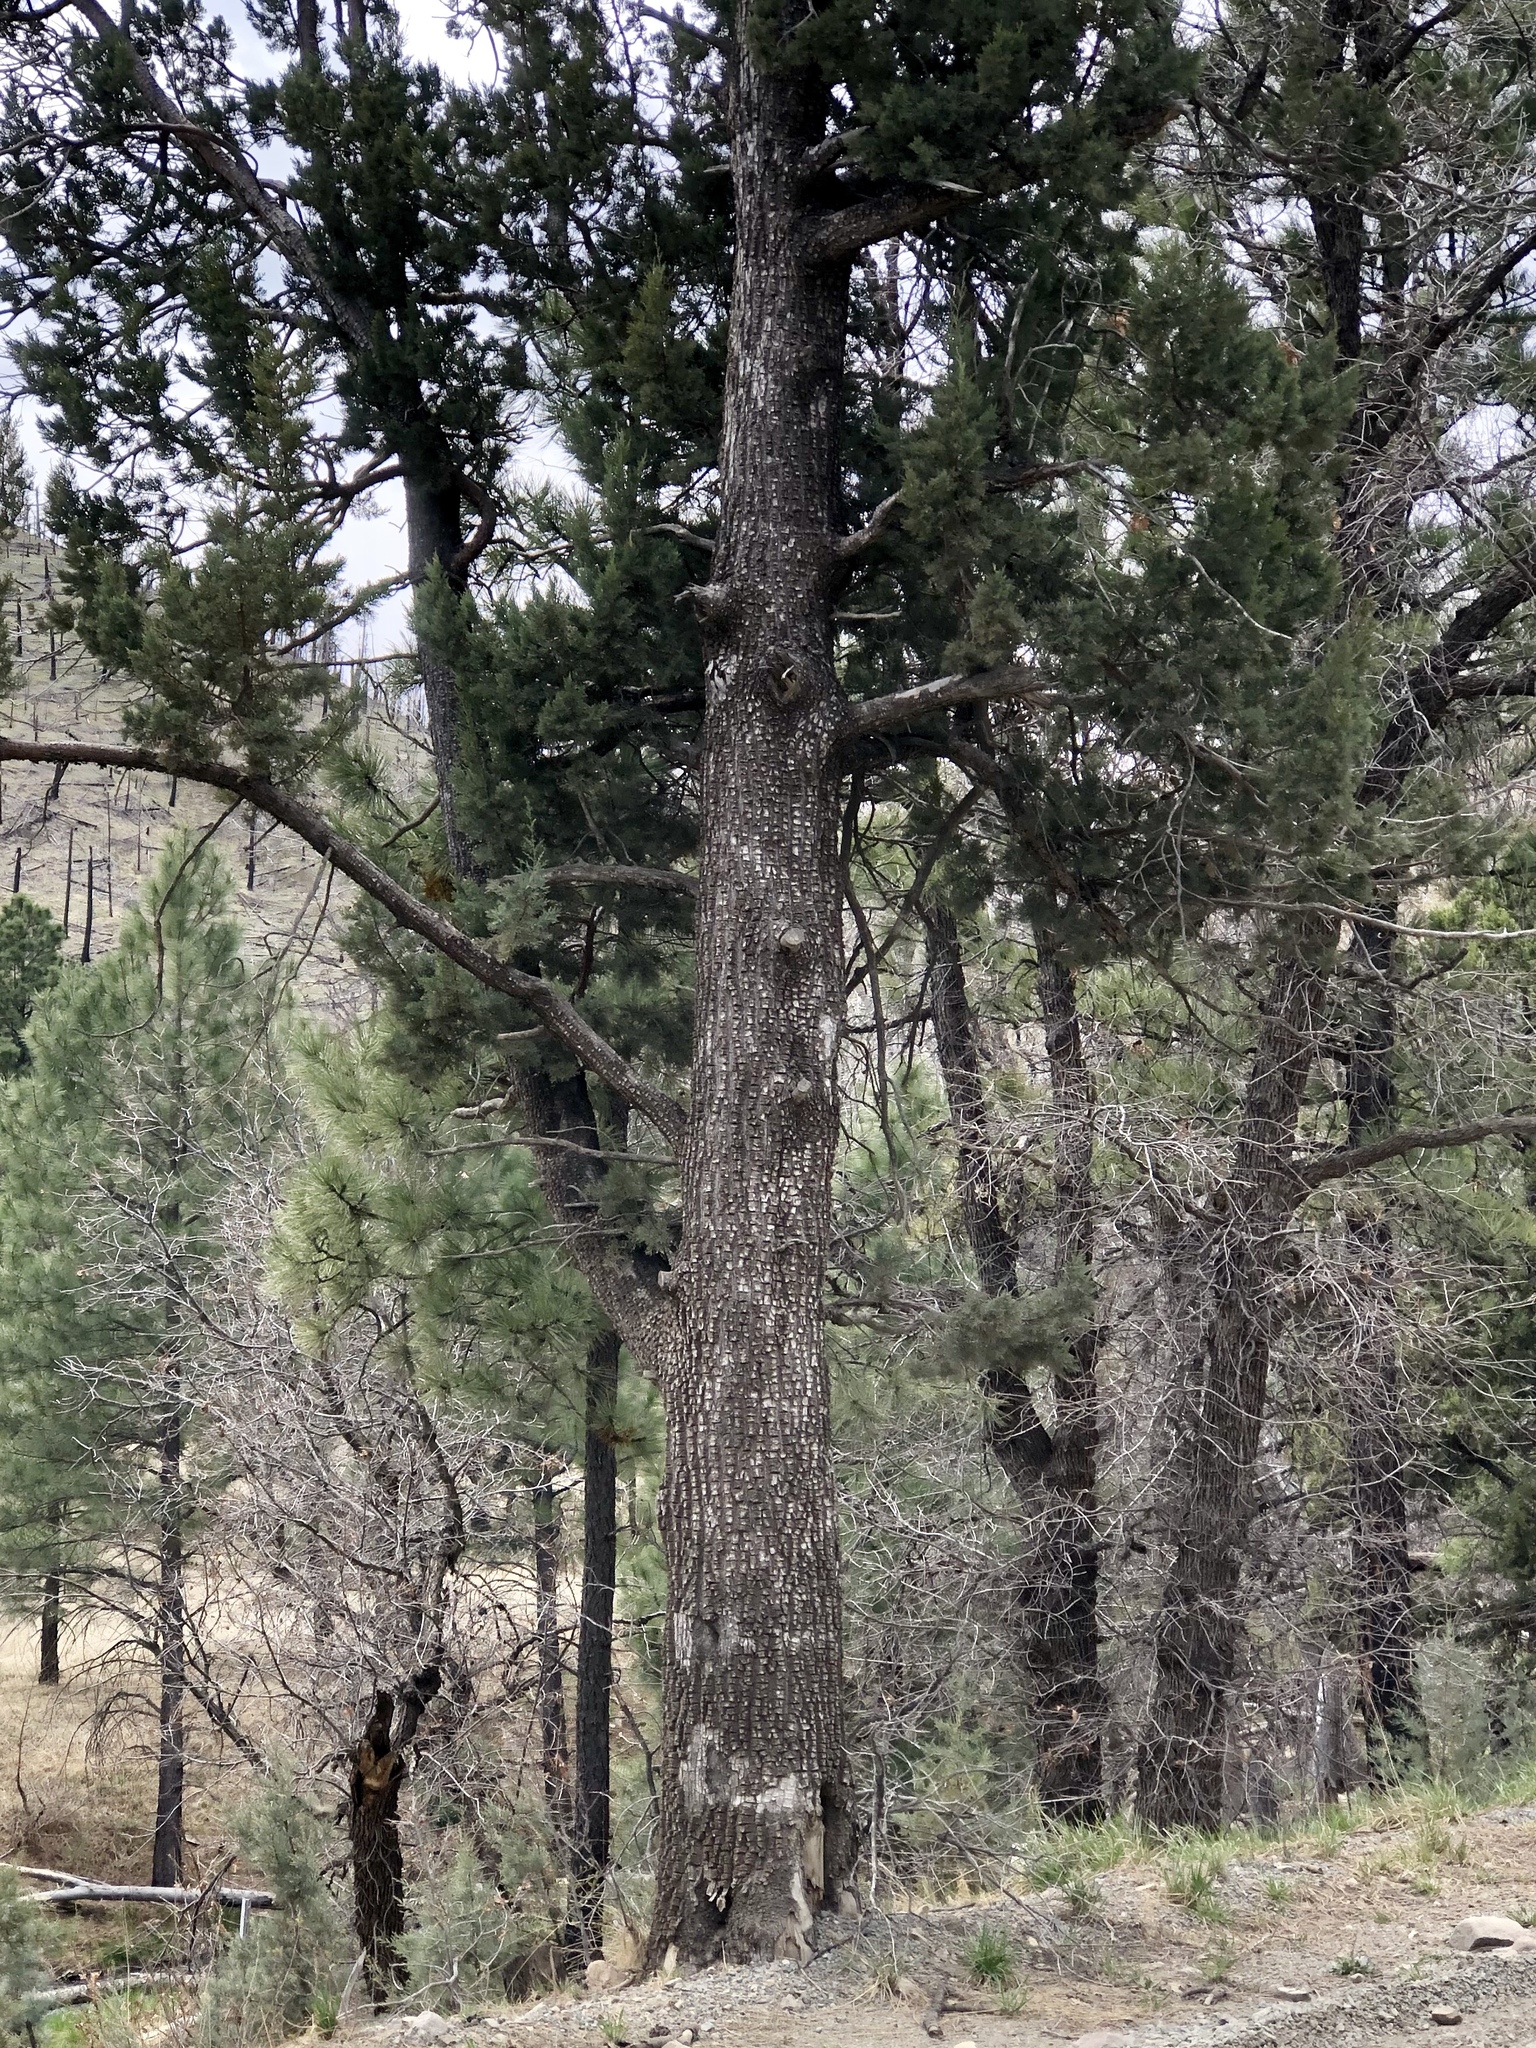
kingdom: Plantae
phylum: Tracheophyta
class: Pinopsida
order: Pinales
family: Cupressaceae
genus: Juniperus
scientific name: Juniperus deppeana
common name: Alligator juniper
